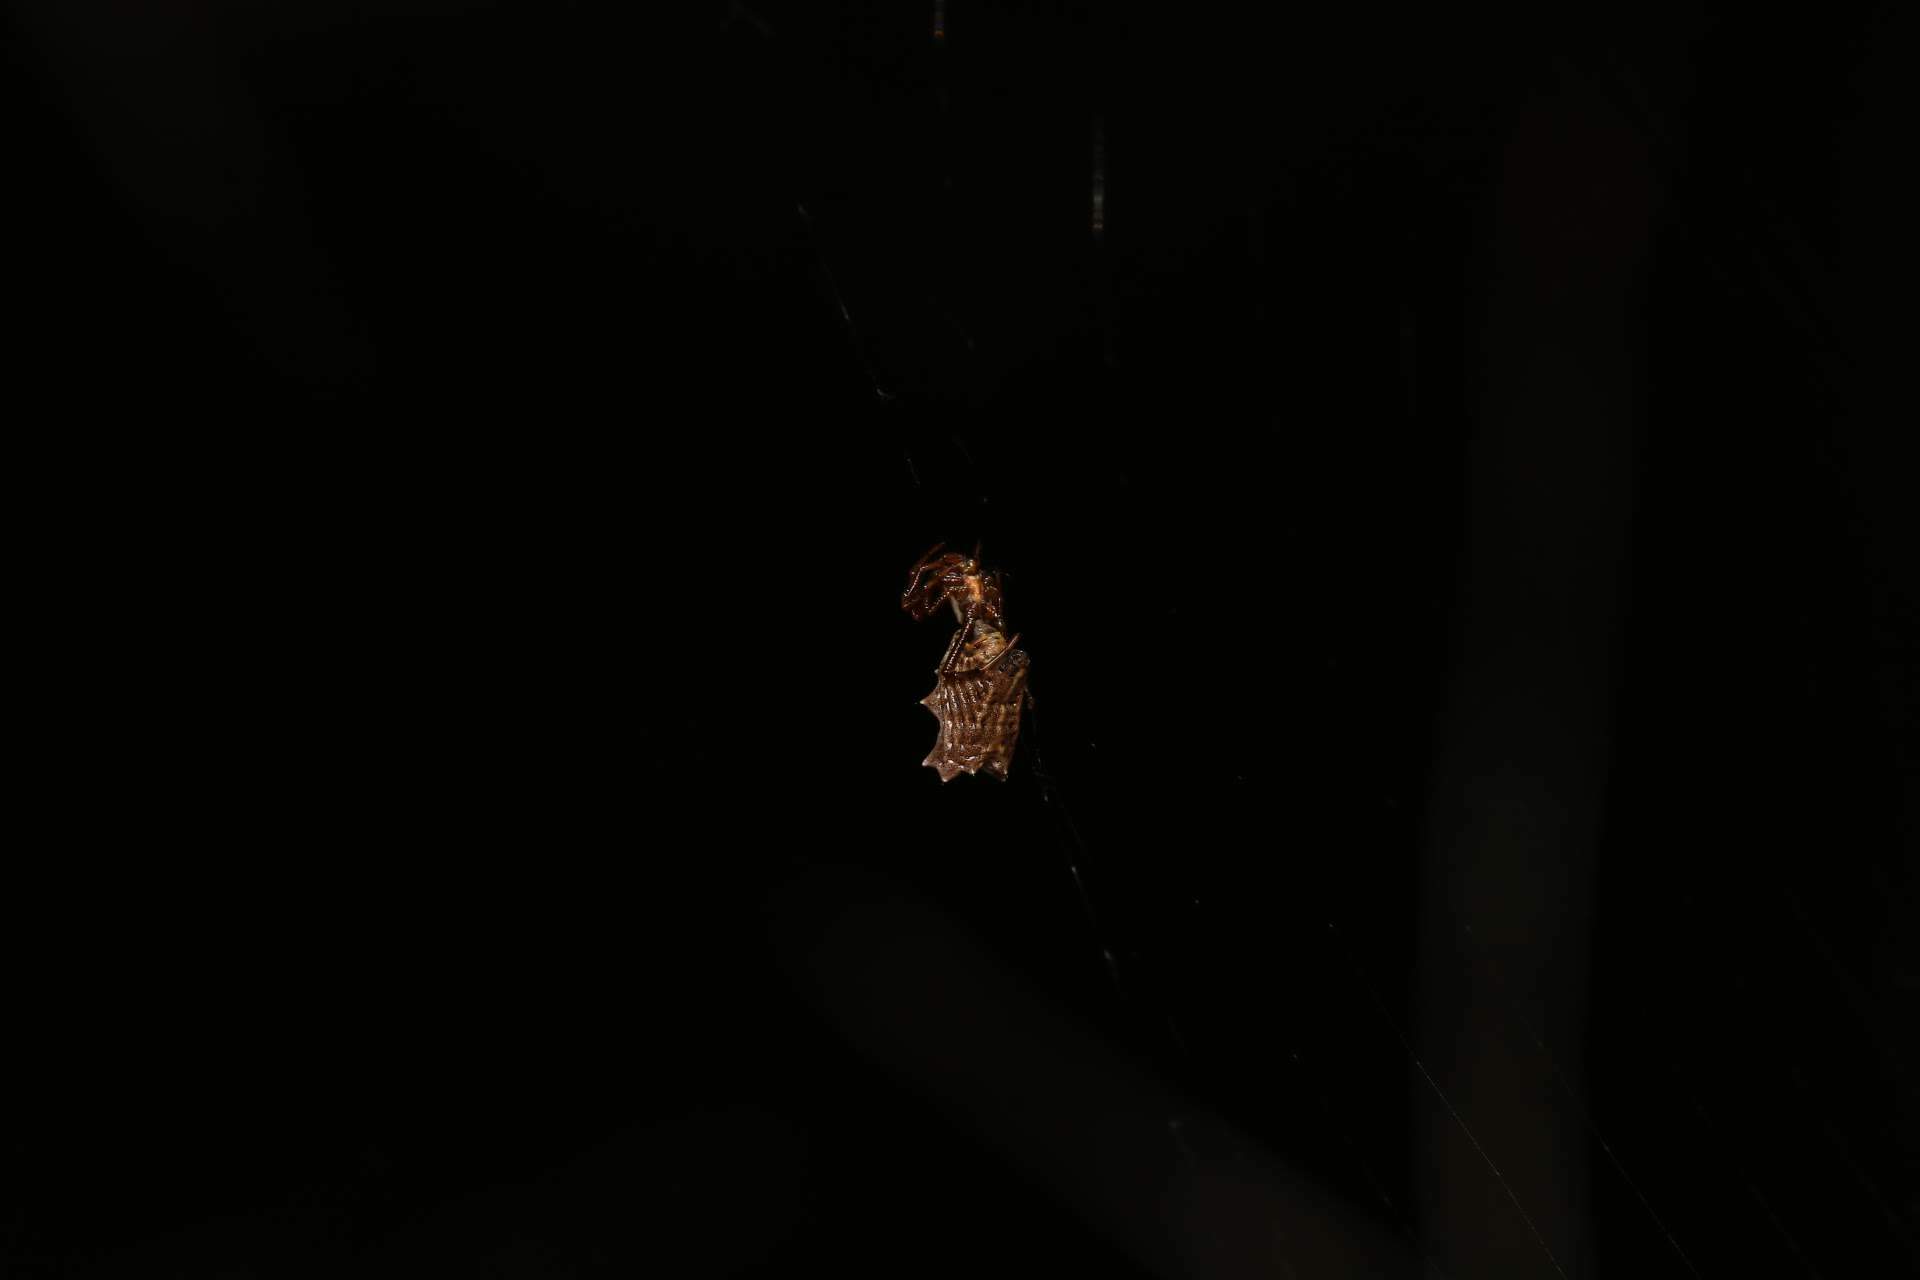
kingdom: Animalia
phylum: Arthropoda
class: Arachnida
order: Araneae
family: Araneidae
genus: Micrathena
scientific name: Micrathena gracilis
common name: Orb weavers
